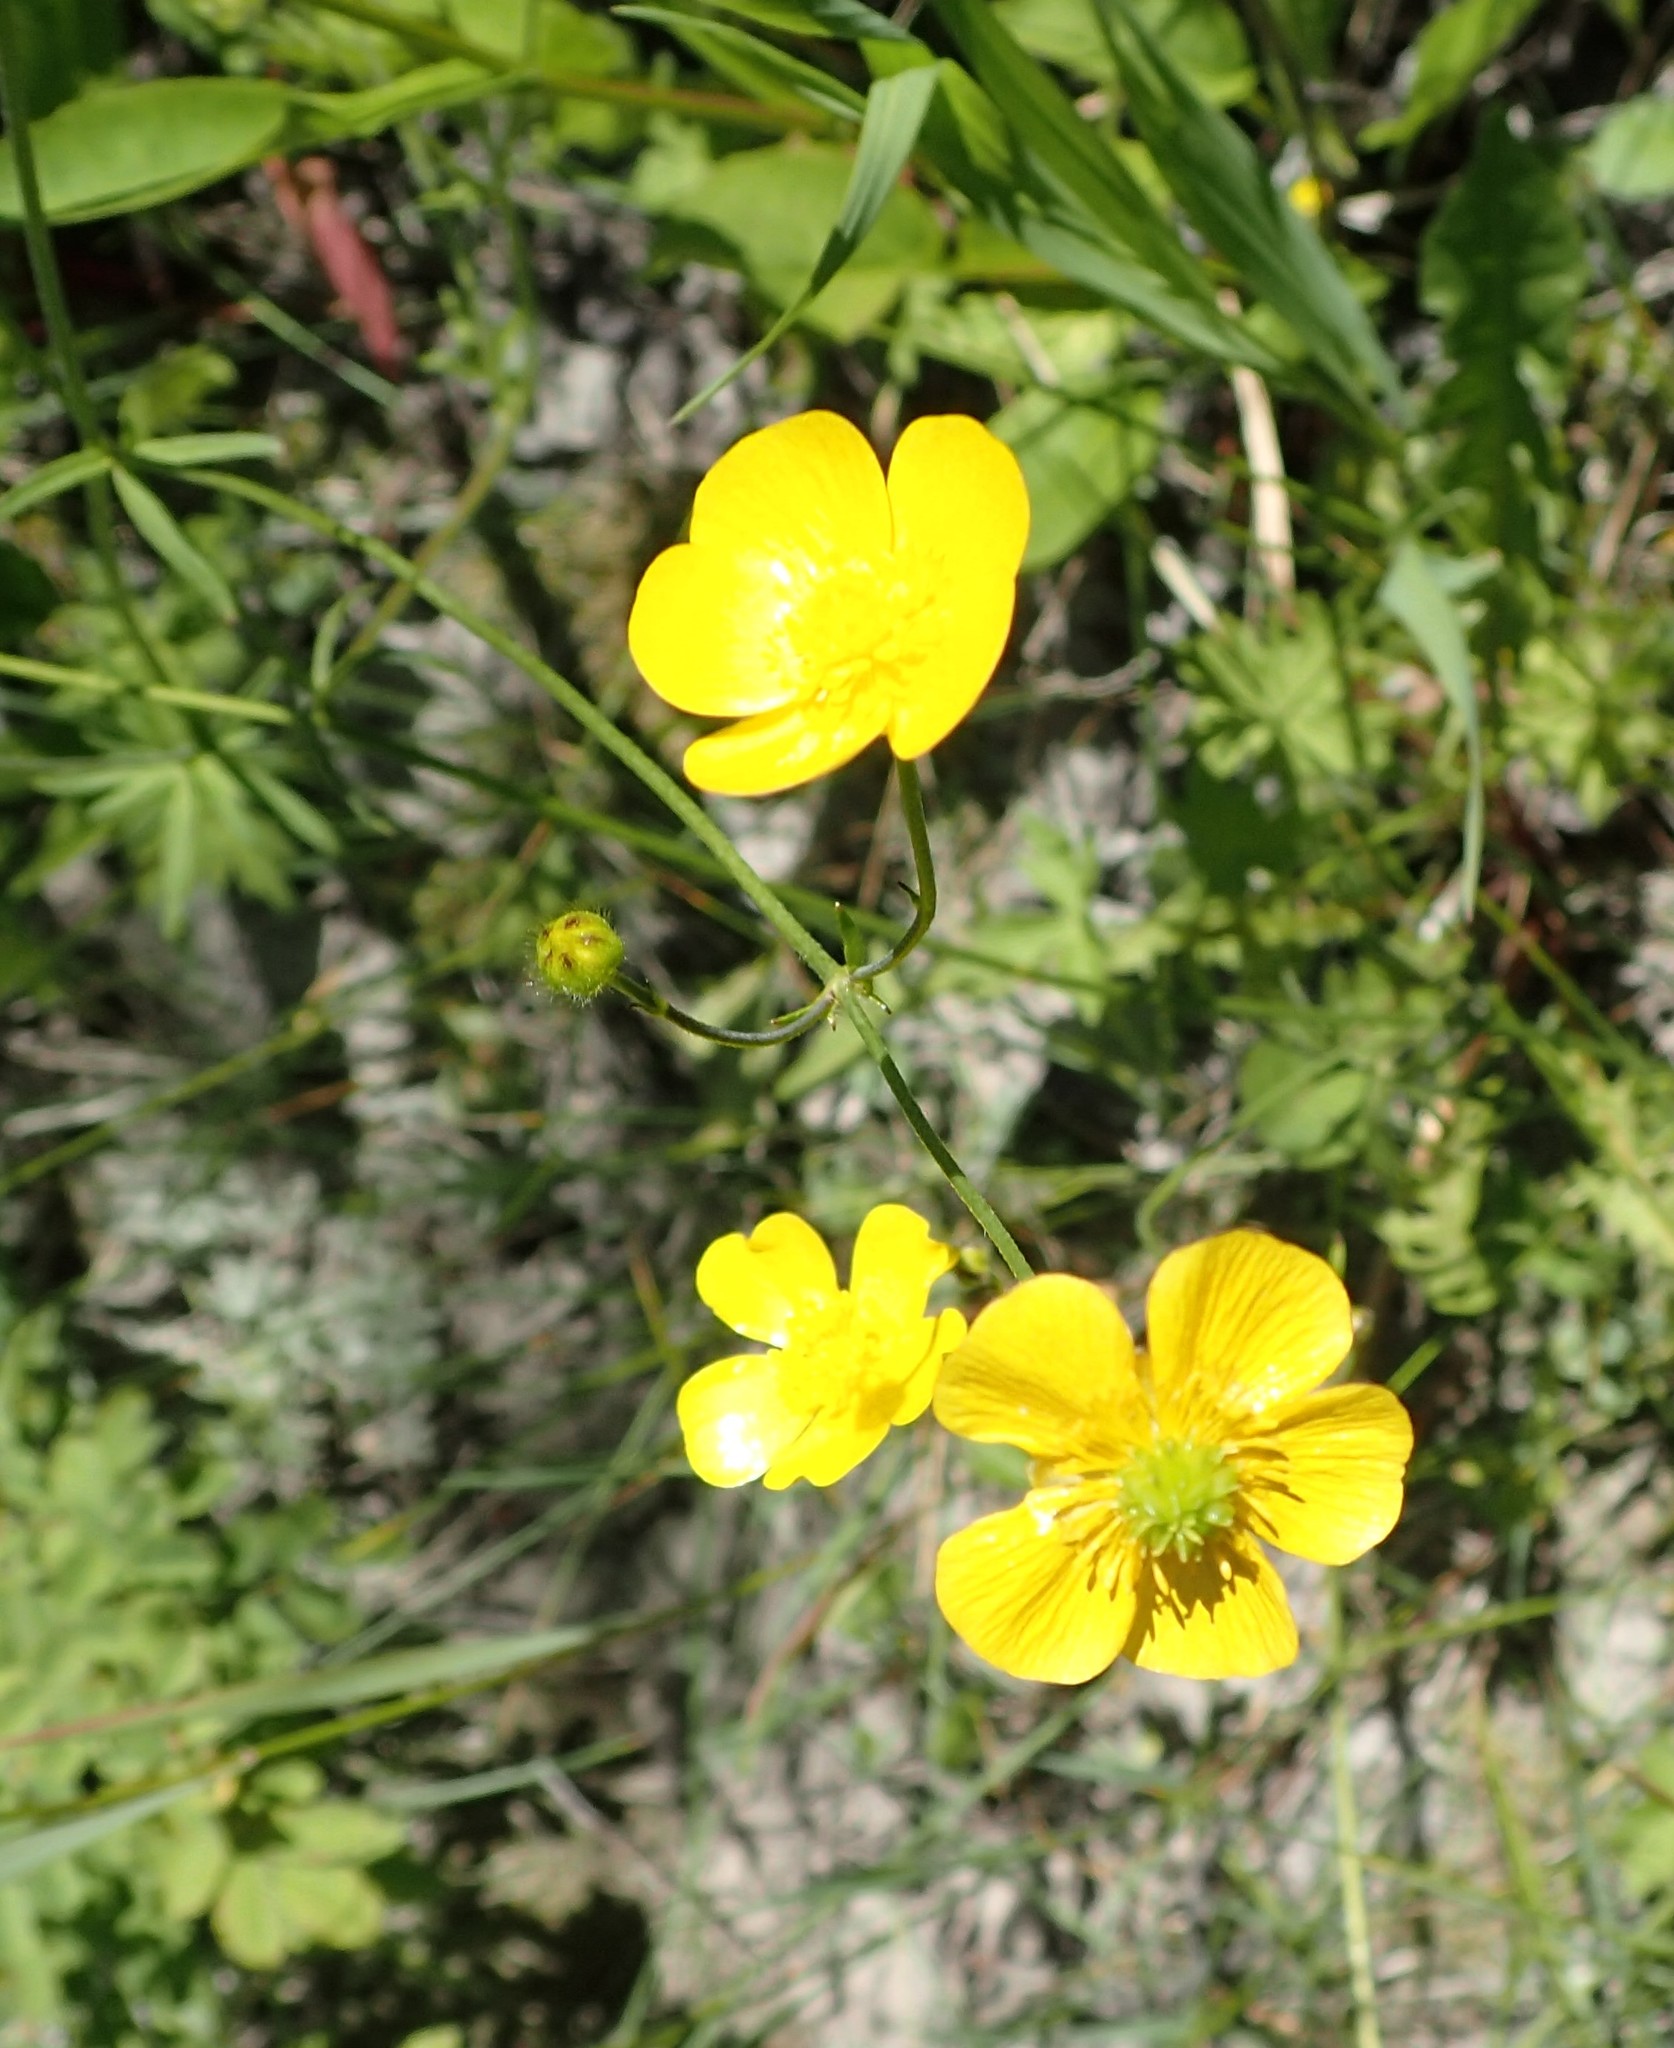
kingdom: Plantae
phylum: Tracheophyta
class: Magnoliopsida
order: Ranunculales
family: Ranunculaceae
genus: Ranunculus
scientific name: Ranunculus acris
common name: Meadow buttercup
